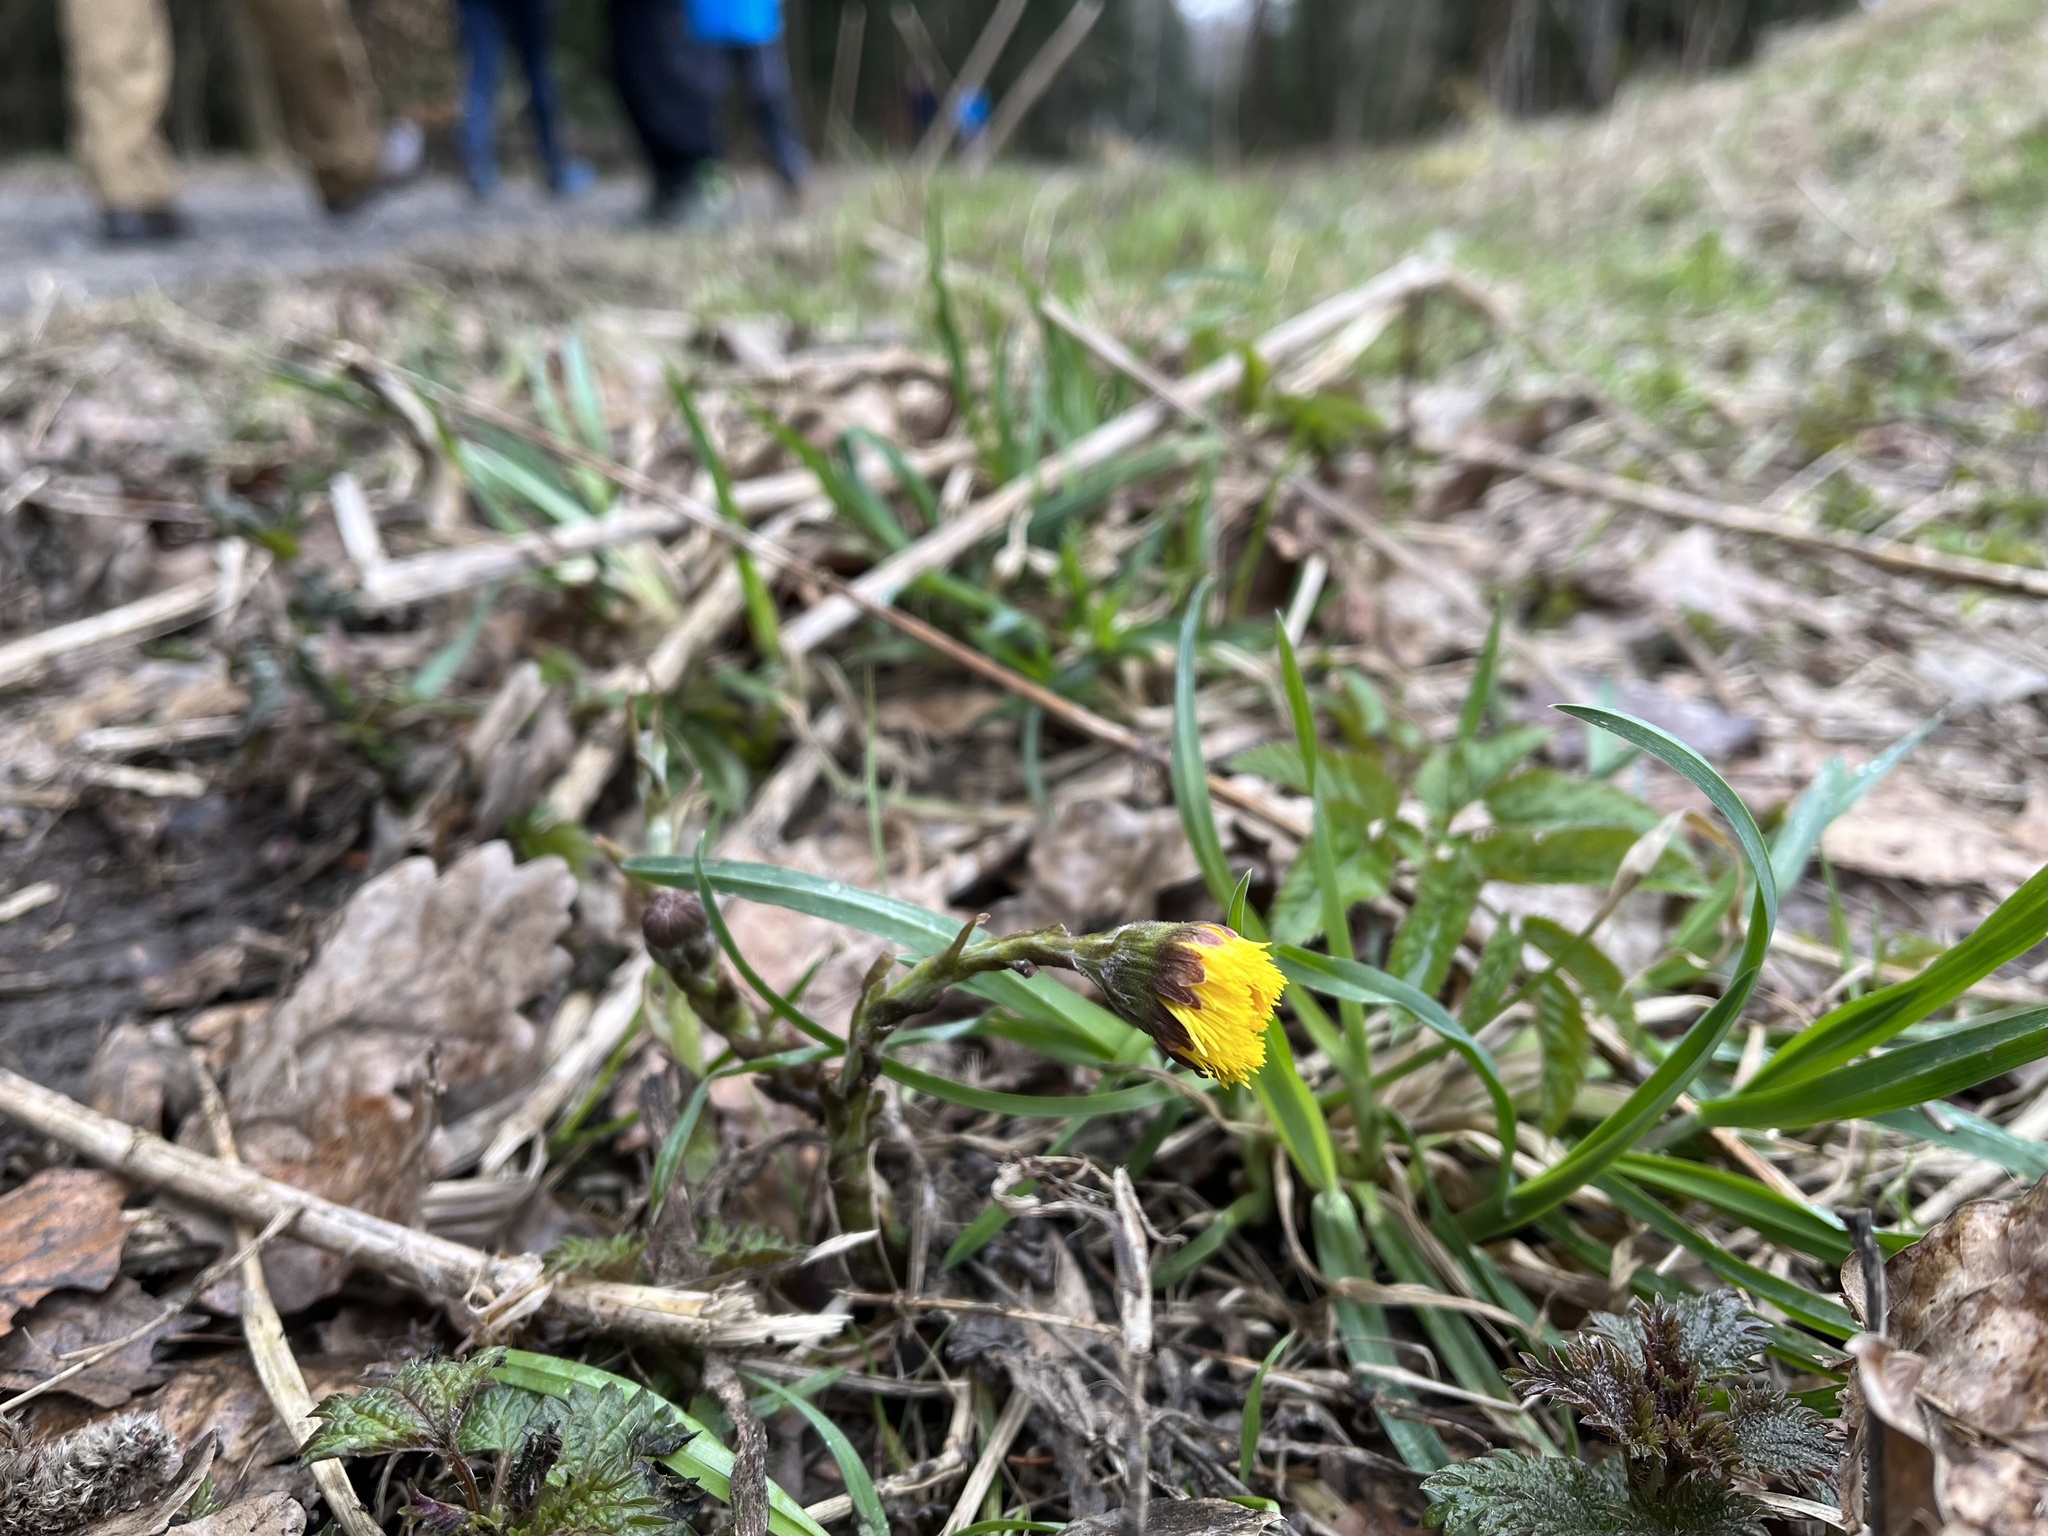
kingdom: Plantae
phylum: Tracheophyta
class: Magnoliopsida
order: Asterales
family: Asteraceae
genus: Tussilago
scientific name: Tussilago farfara
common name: Coltsfoot
